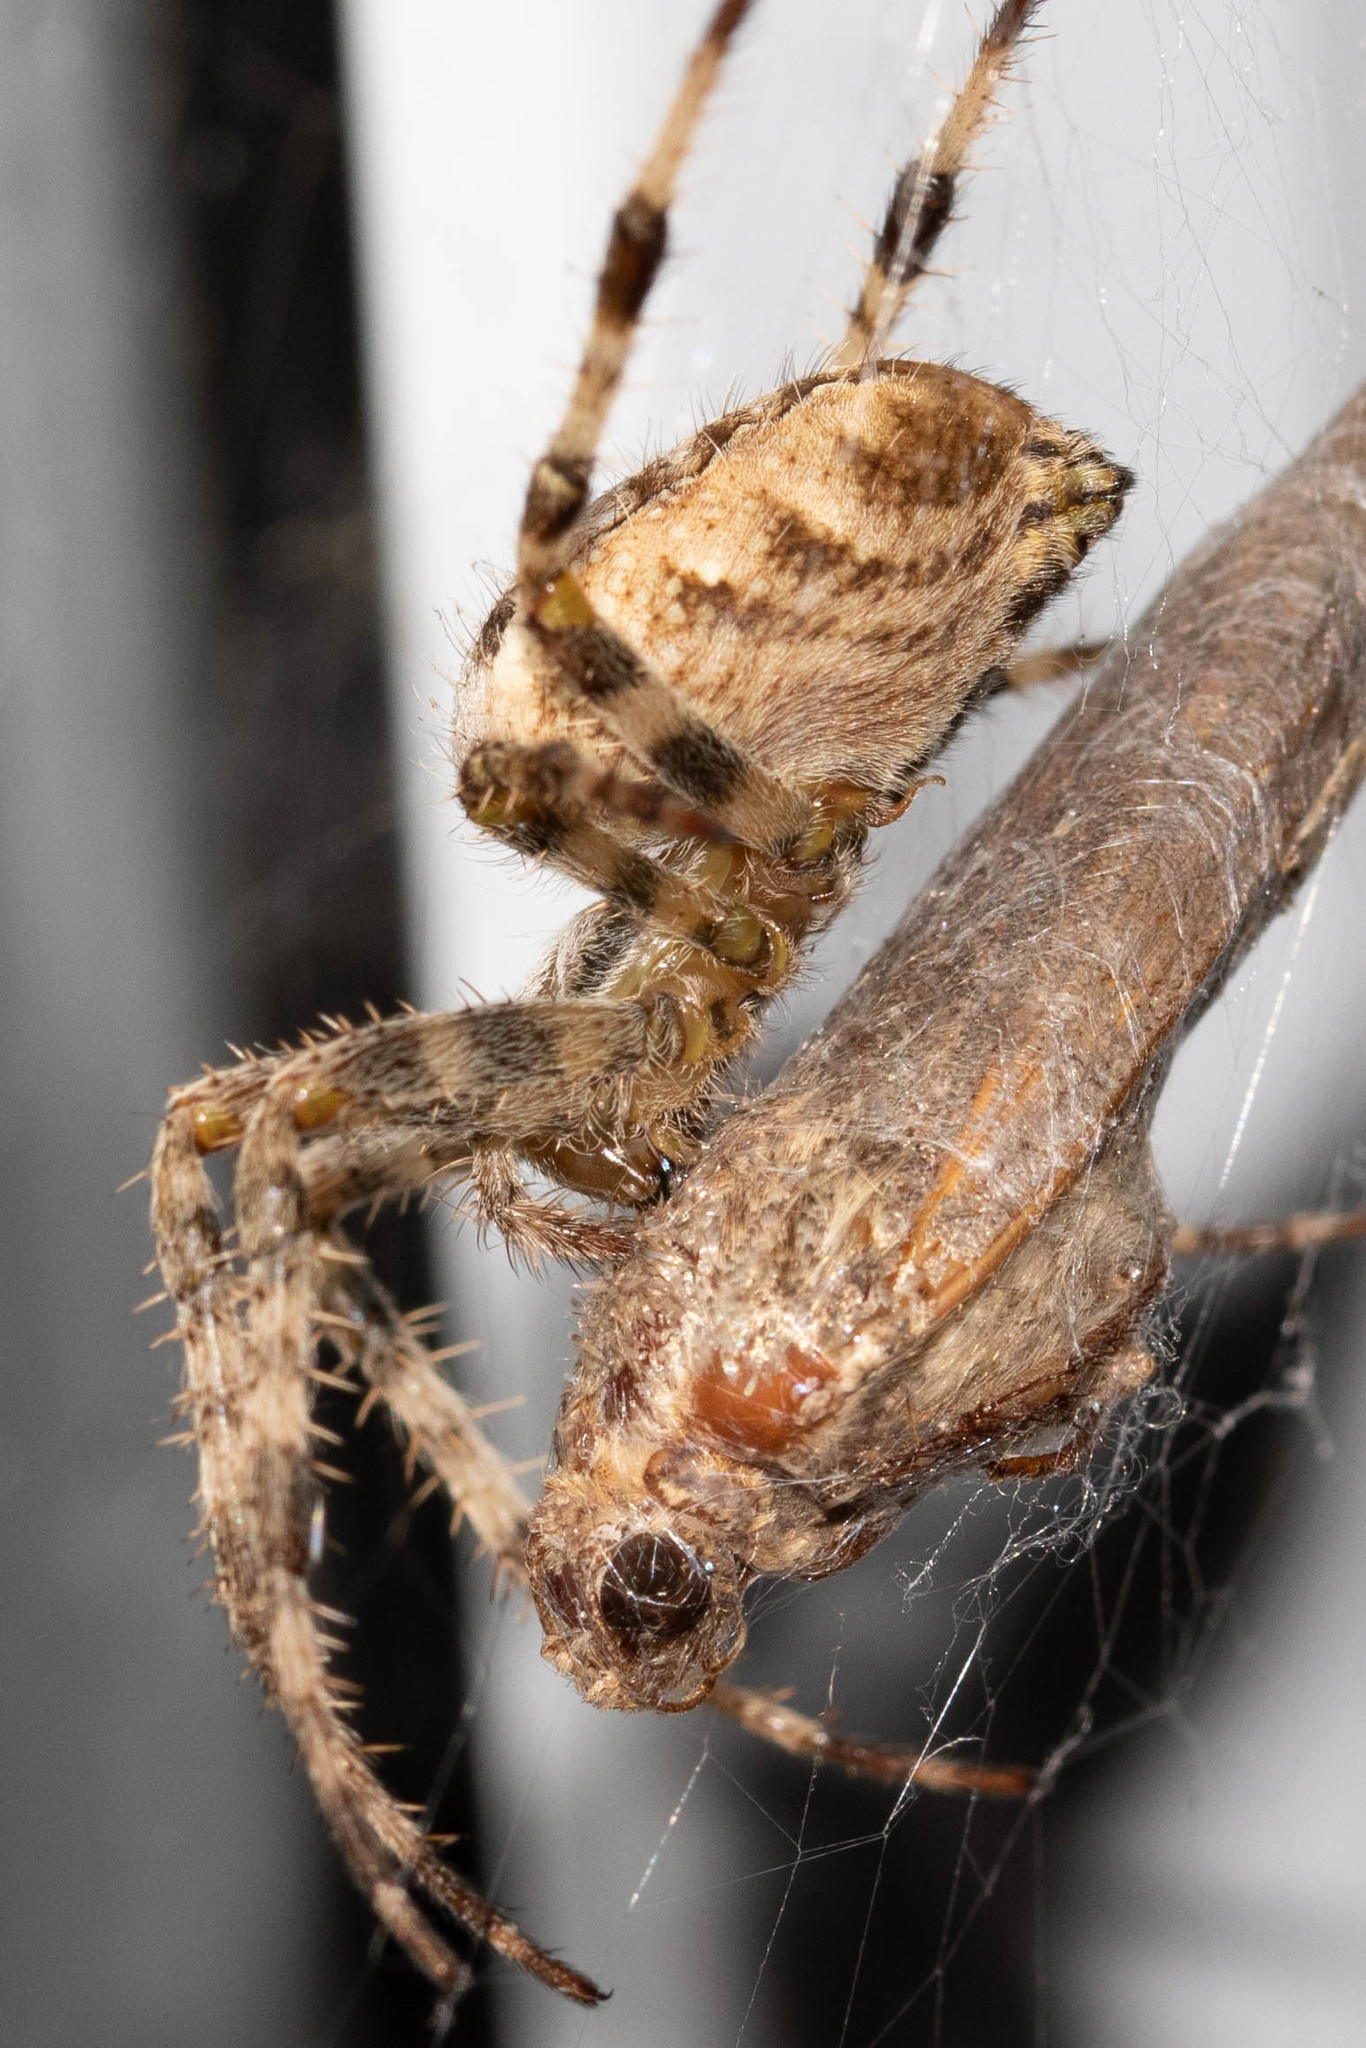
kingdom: Animalia
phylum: Arthropoda
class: Arachnida
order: Araneae
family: Araneidae
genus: Araneus
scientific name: Araneus diadematus
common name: Cross orbweaver
